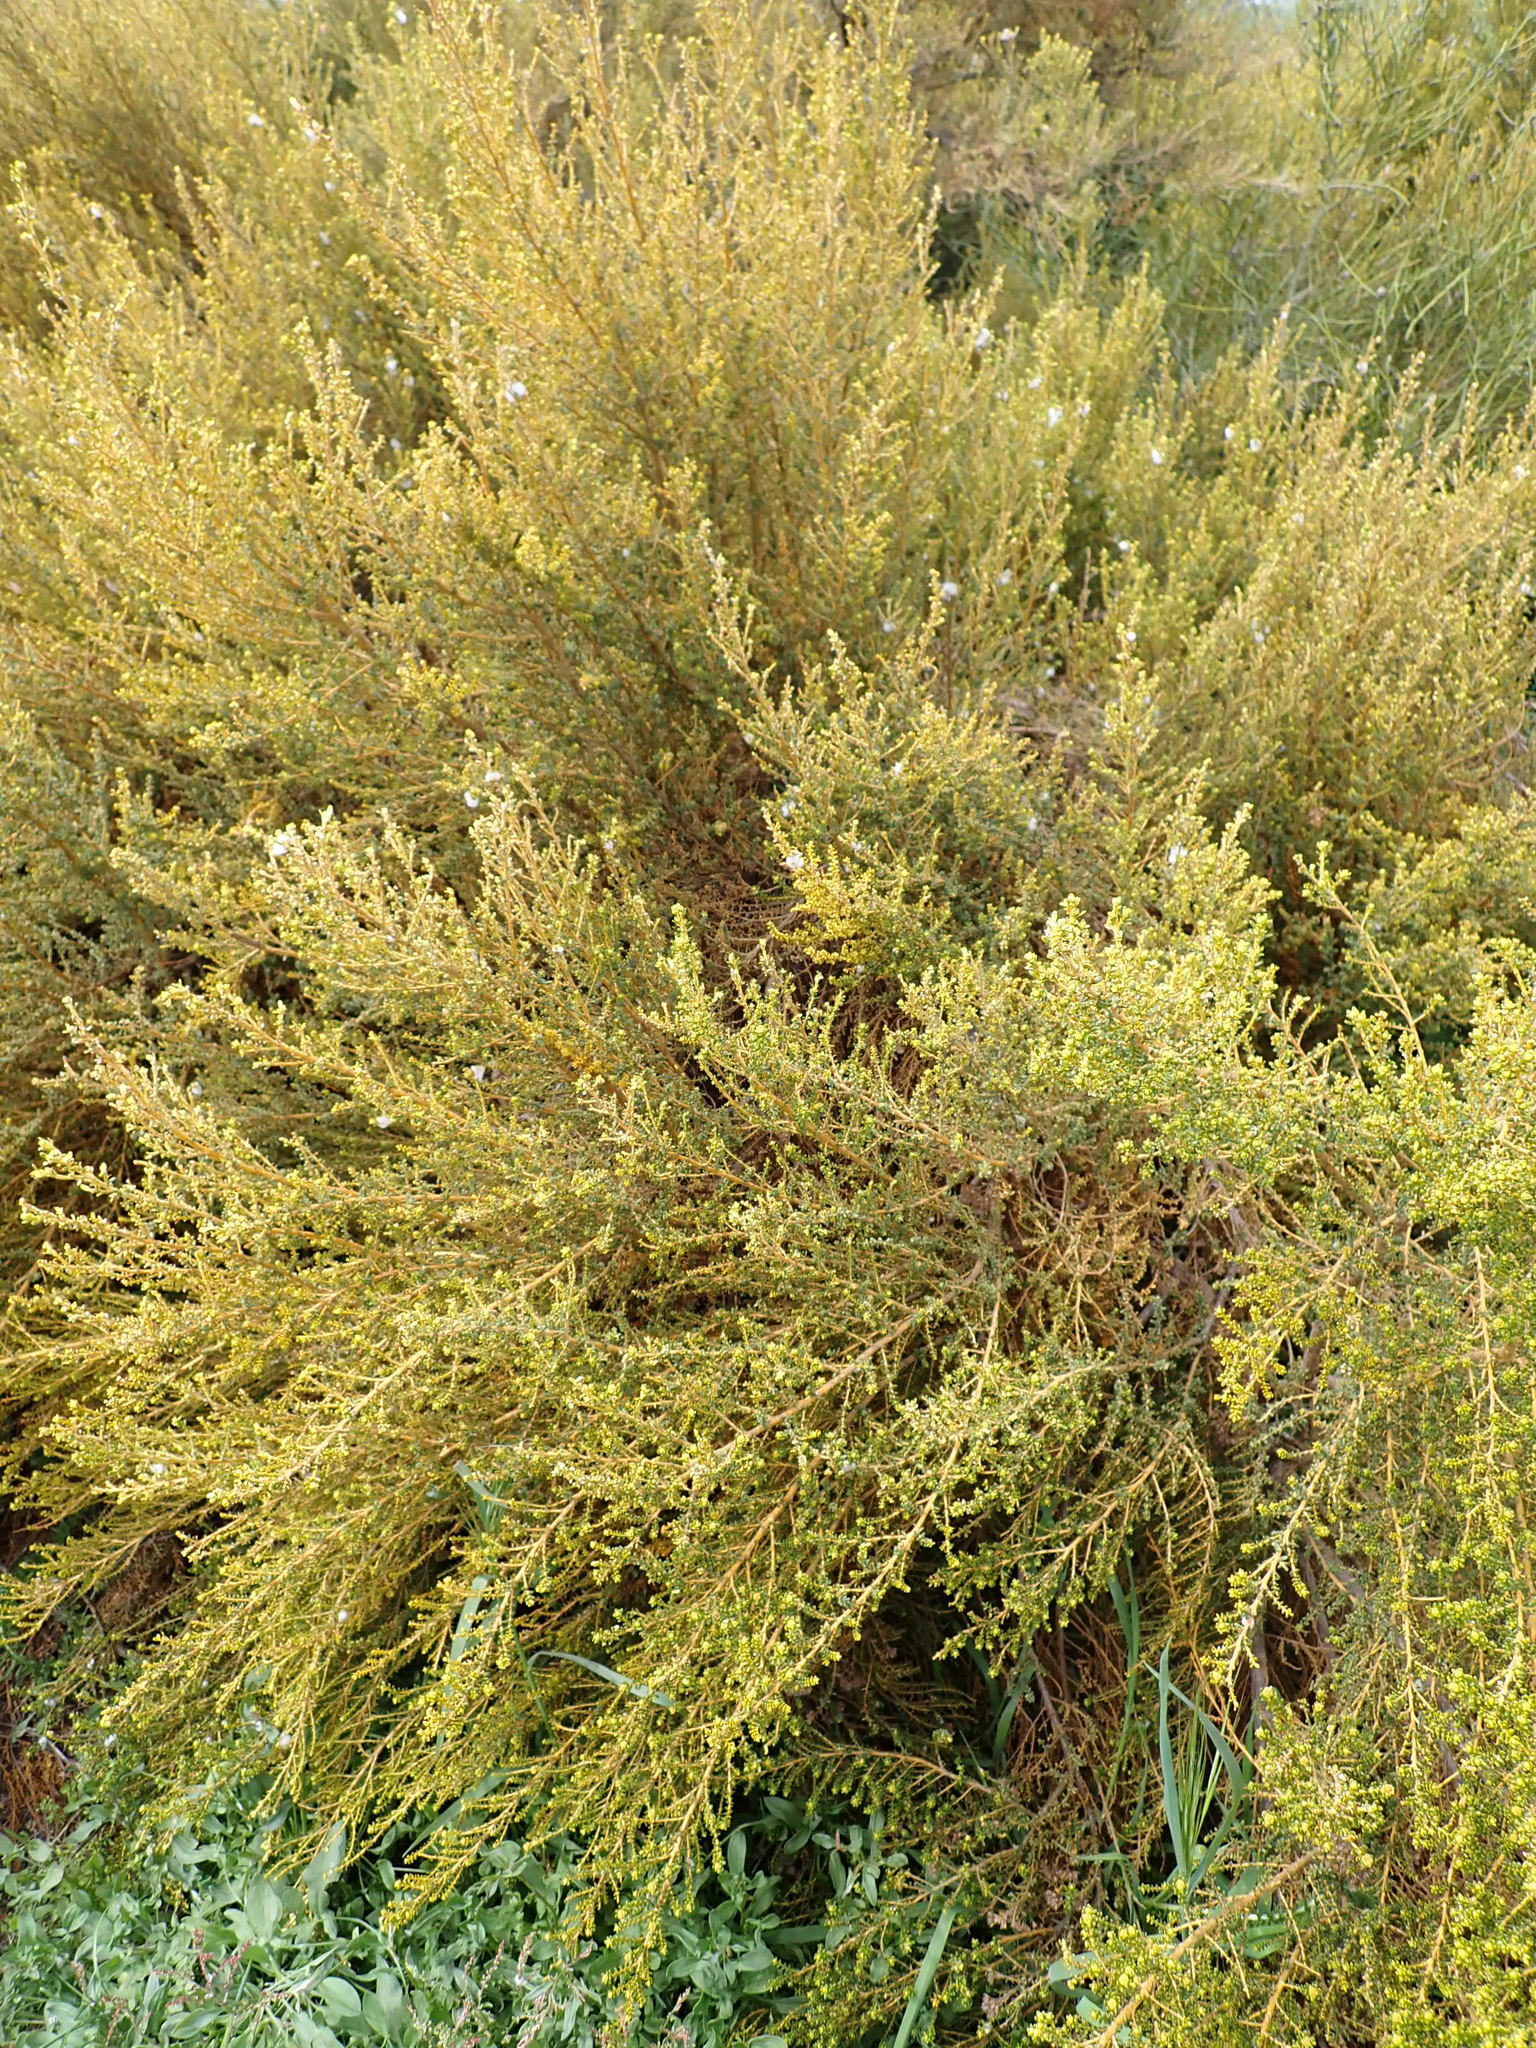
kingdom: Plantae
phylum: Tracheophyta
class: Magnoliopsida
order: Asterales
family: Asteraceae
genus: Ozothamnus
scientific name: Ozothamnus leptophyllus
